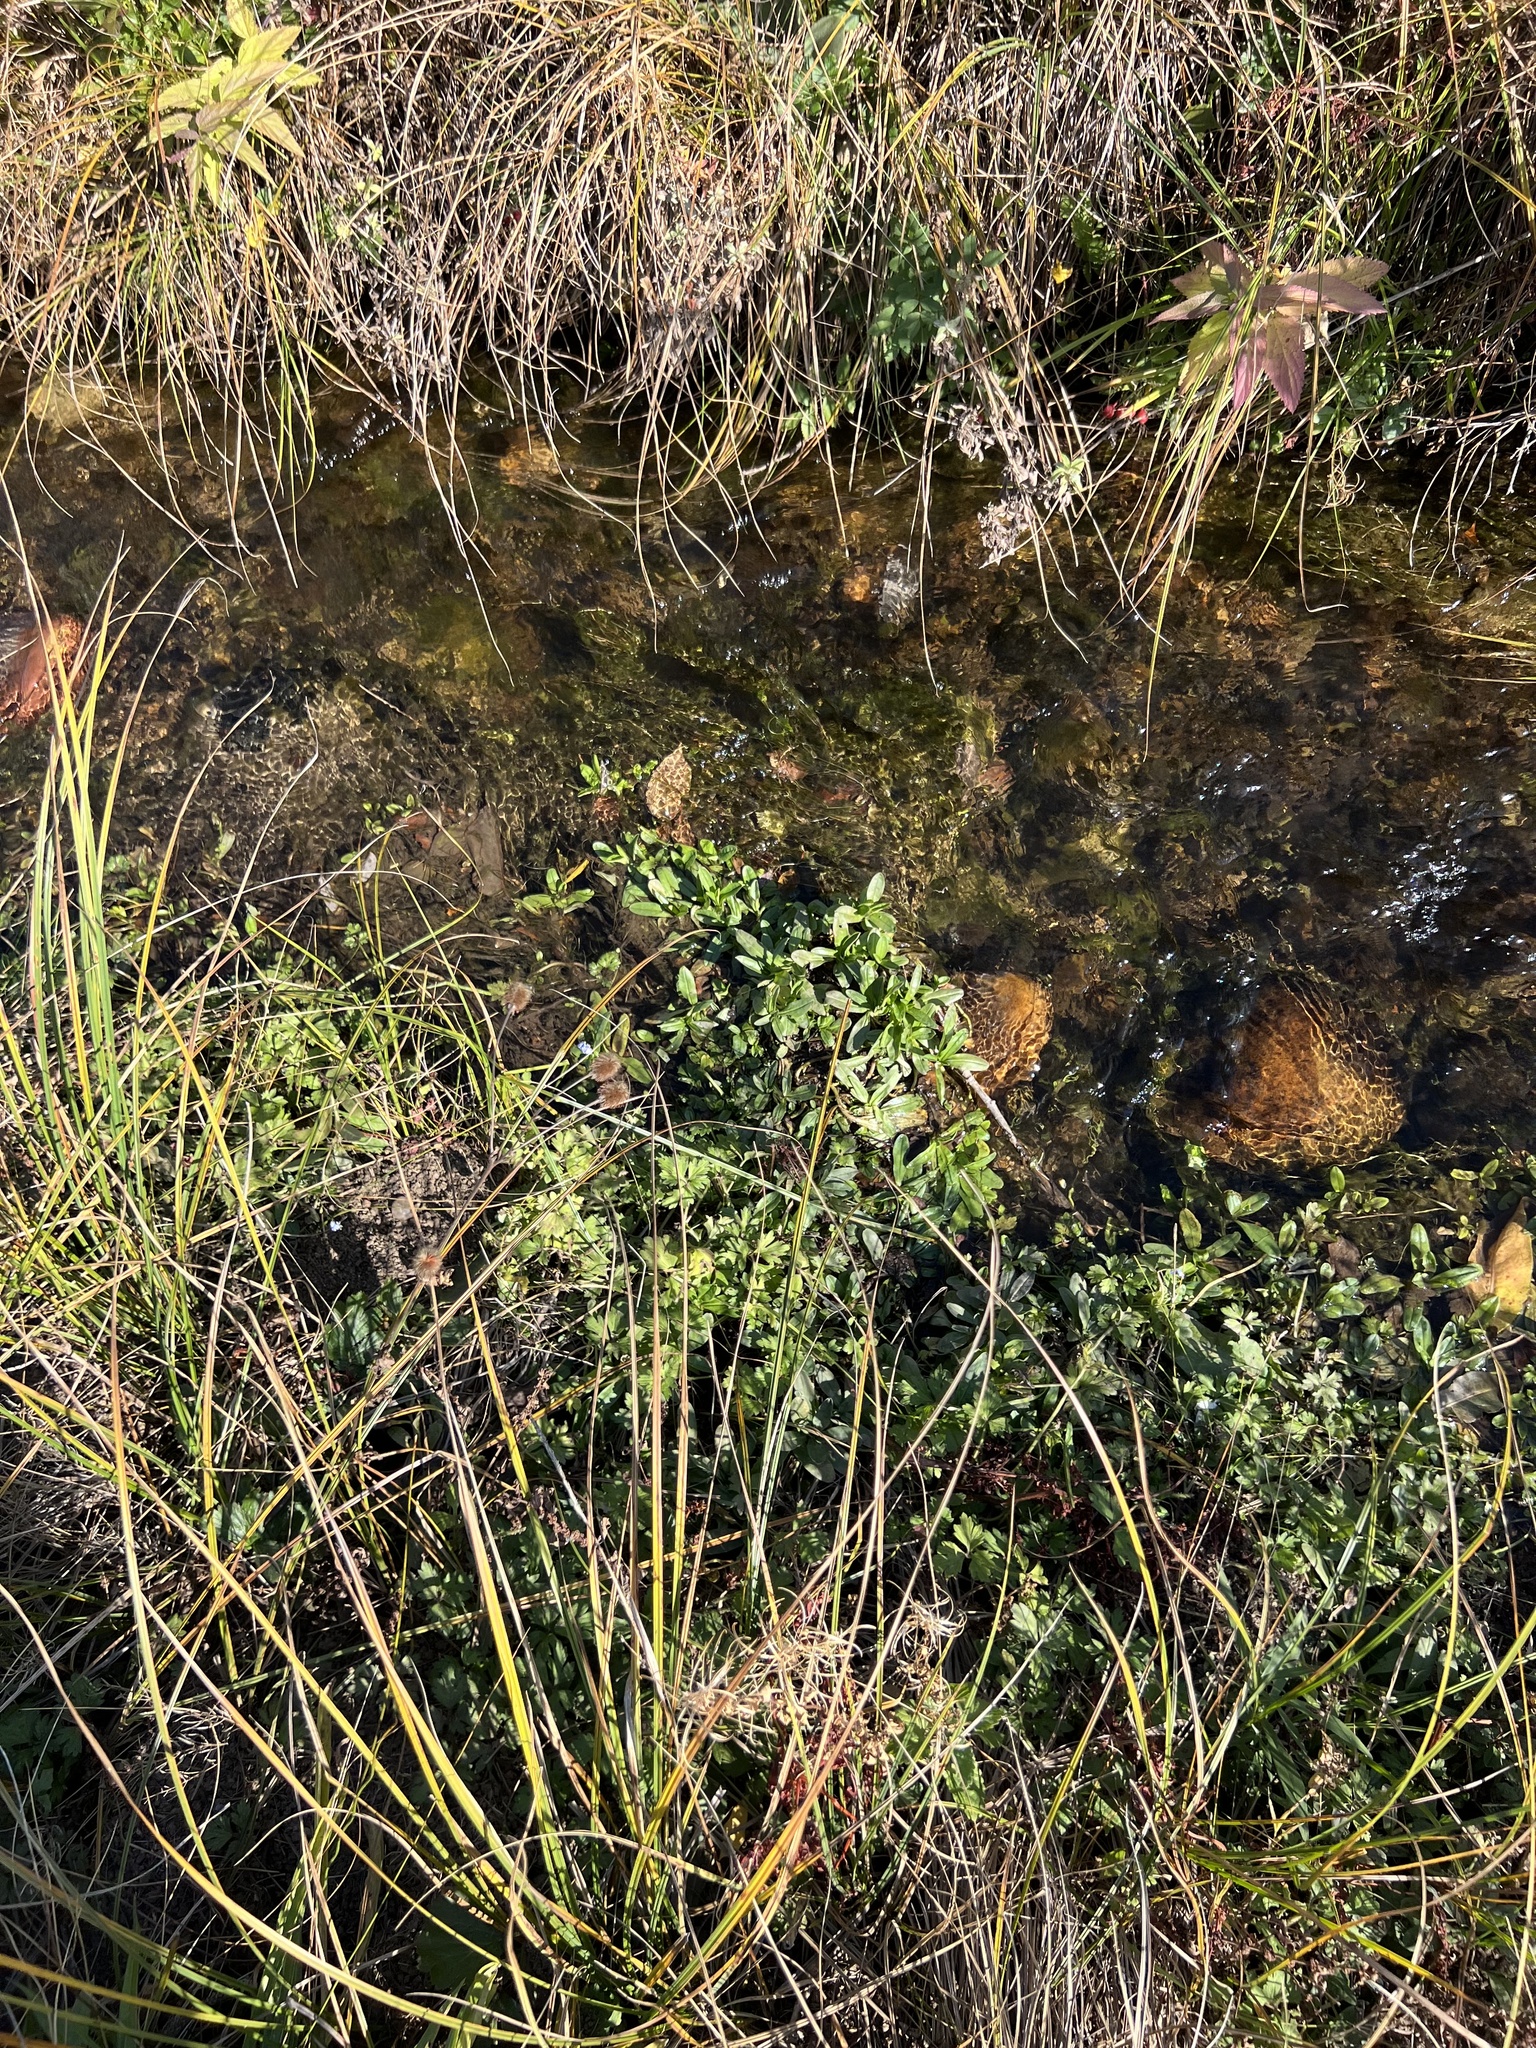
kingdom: Plantae
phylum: Tracheophyta
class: Magnoliopsida
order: Lamiales
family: Plantaginaceae
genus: Veronica
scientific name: Veronica anagallis-aquatica
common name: Water speedwell
